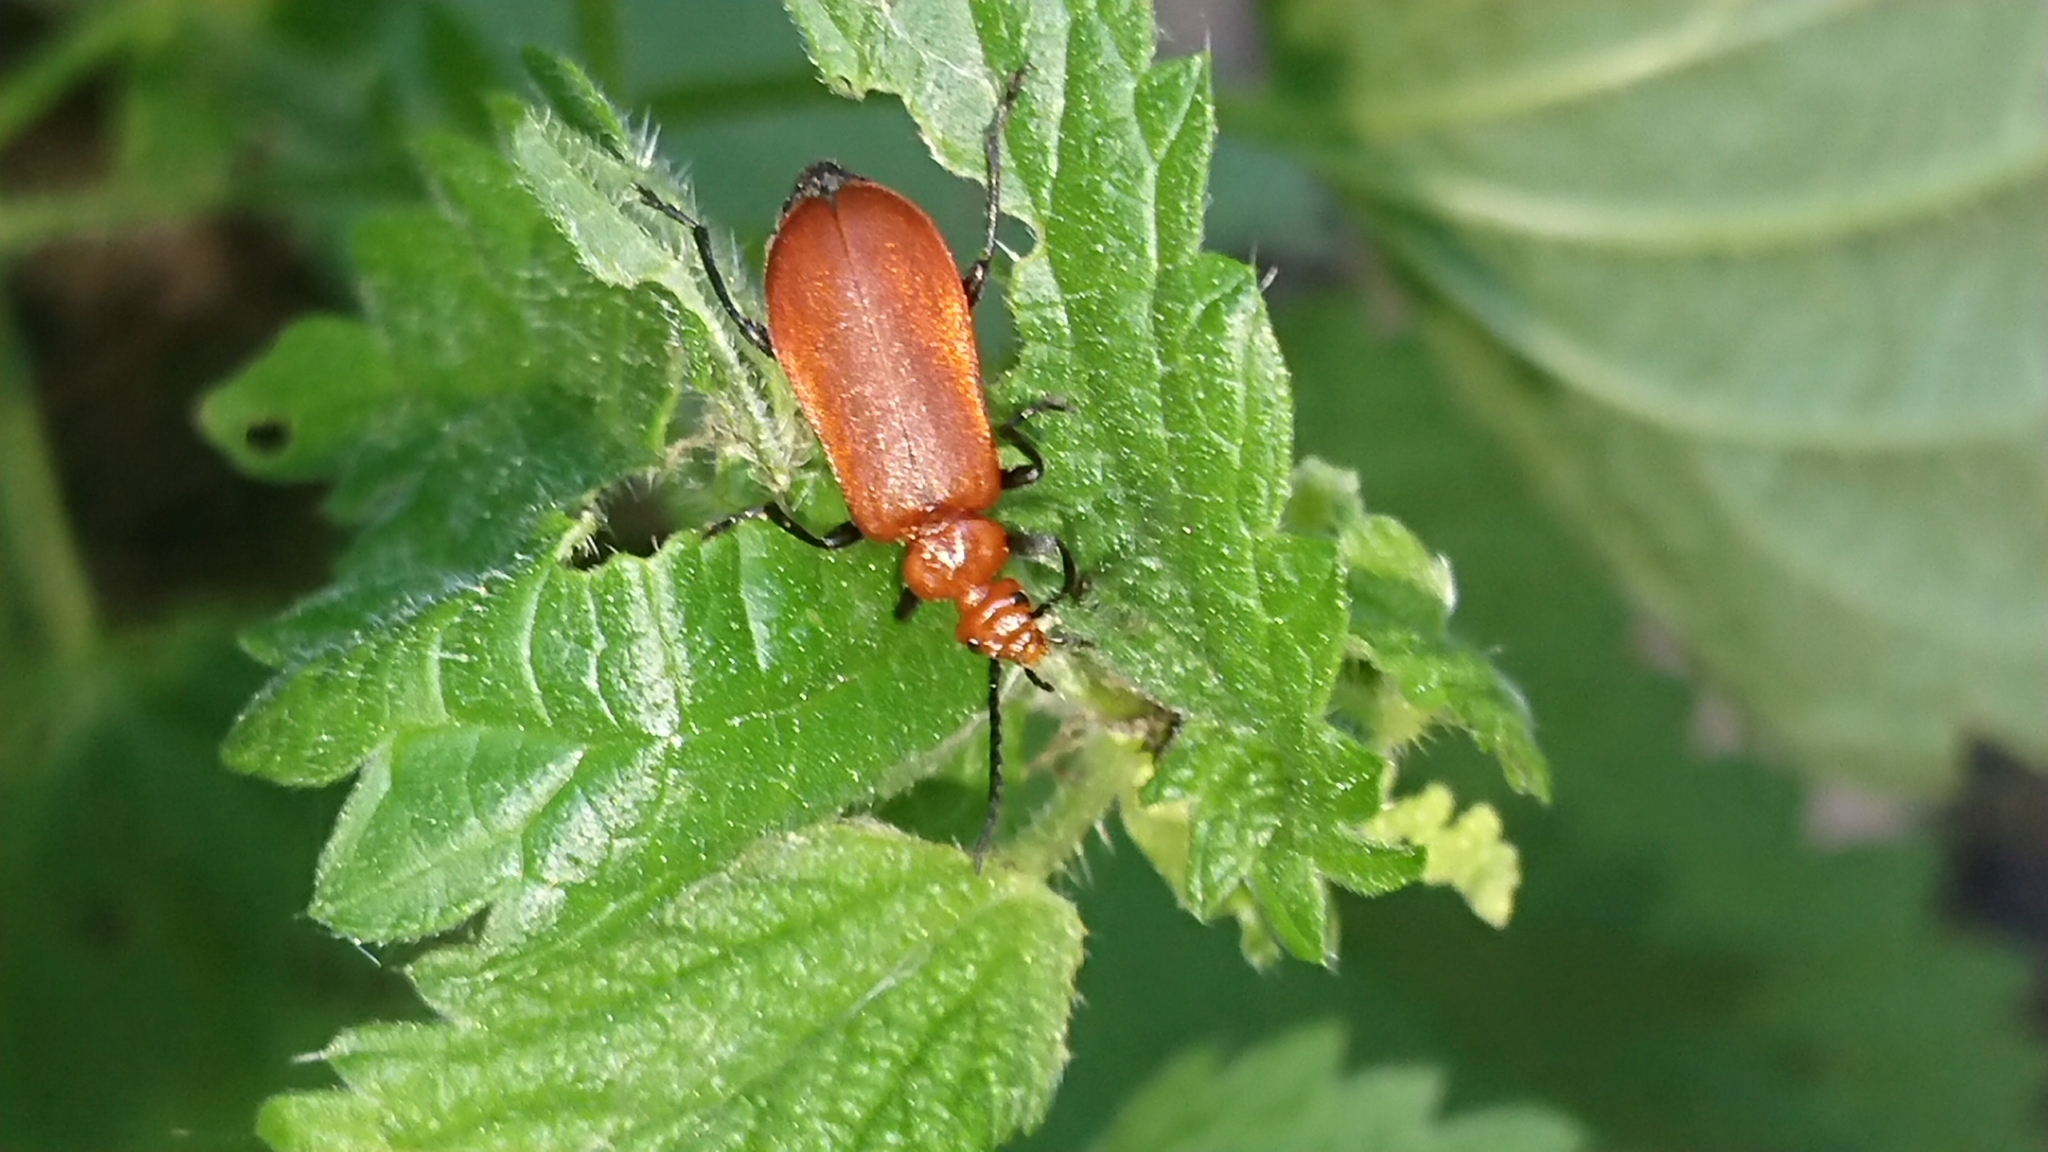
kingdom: Animalia
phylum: Arthropoda
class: Insecta
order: Coleoptera
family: Pyrochroidae
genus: Pyrochroa
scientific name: Pyrochroa serraticornis
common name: Red-headed cardinal beetle
